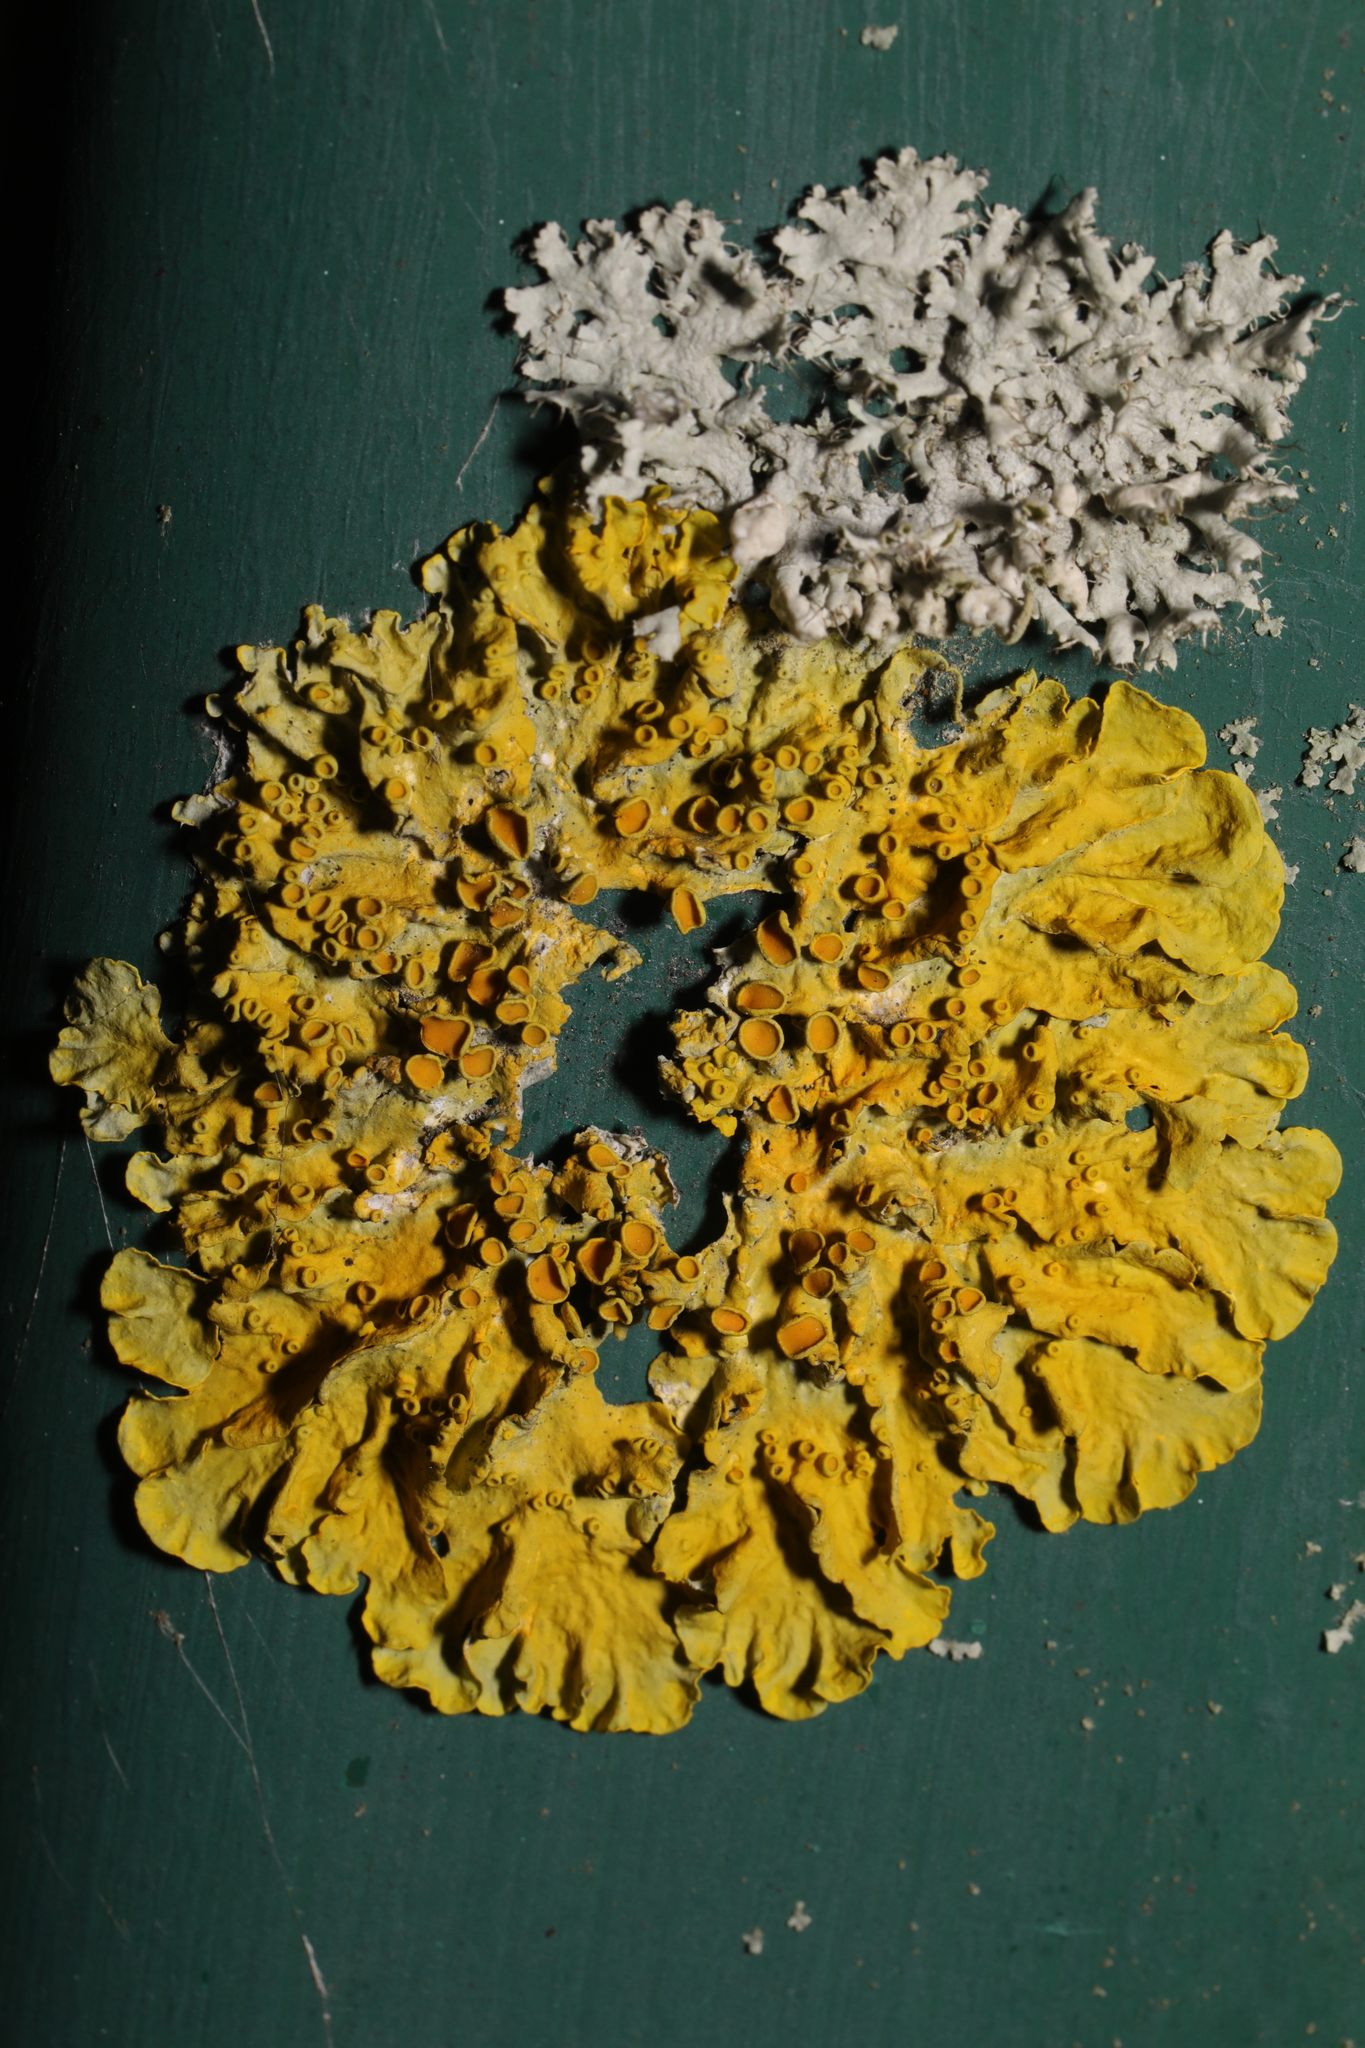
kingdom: Fungi
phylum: Ascomycota
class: Lecanoromycetes
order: Teloschistales
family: Teloschistaceae
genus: Xanthoria
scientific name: Xanthoria parietina
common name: Common orange lichen
